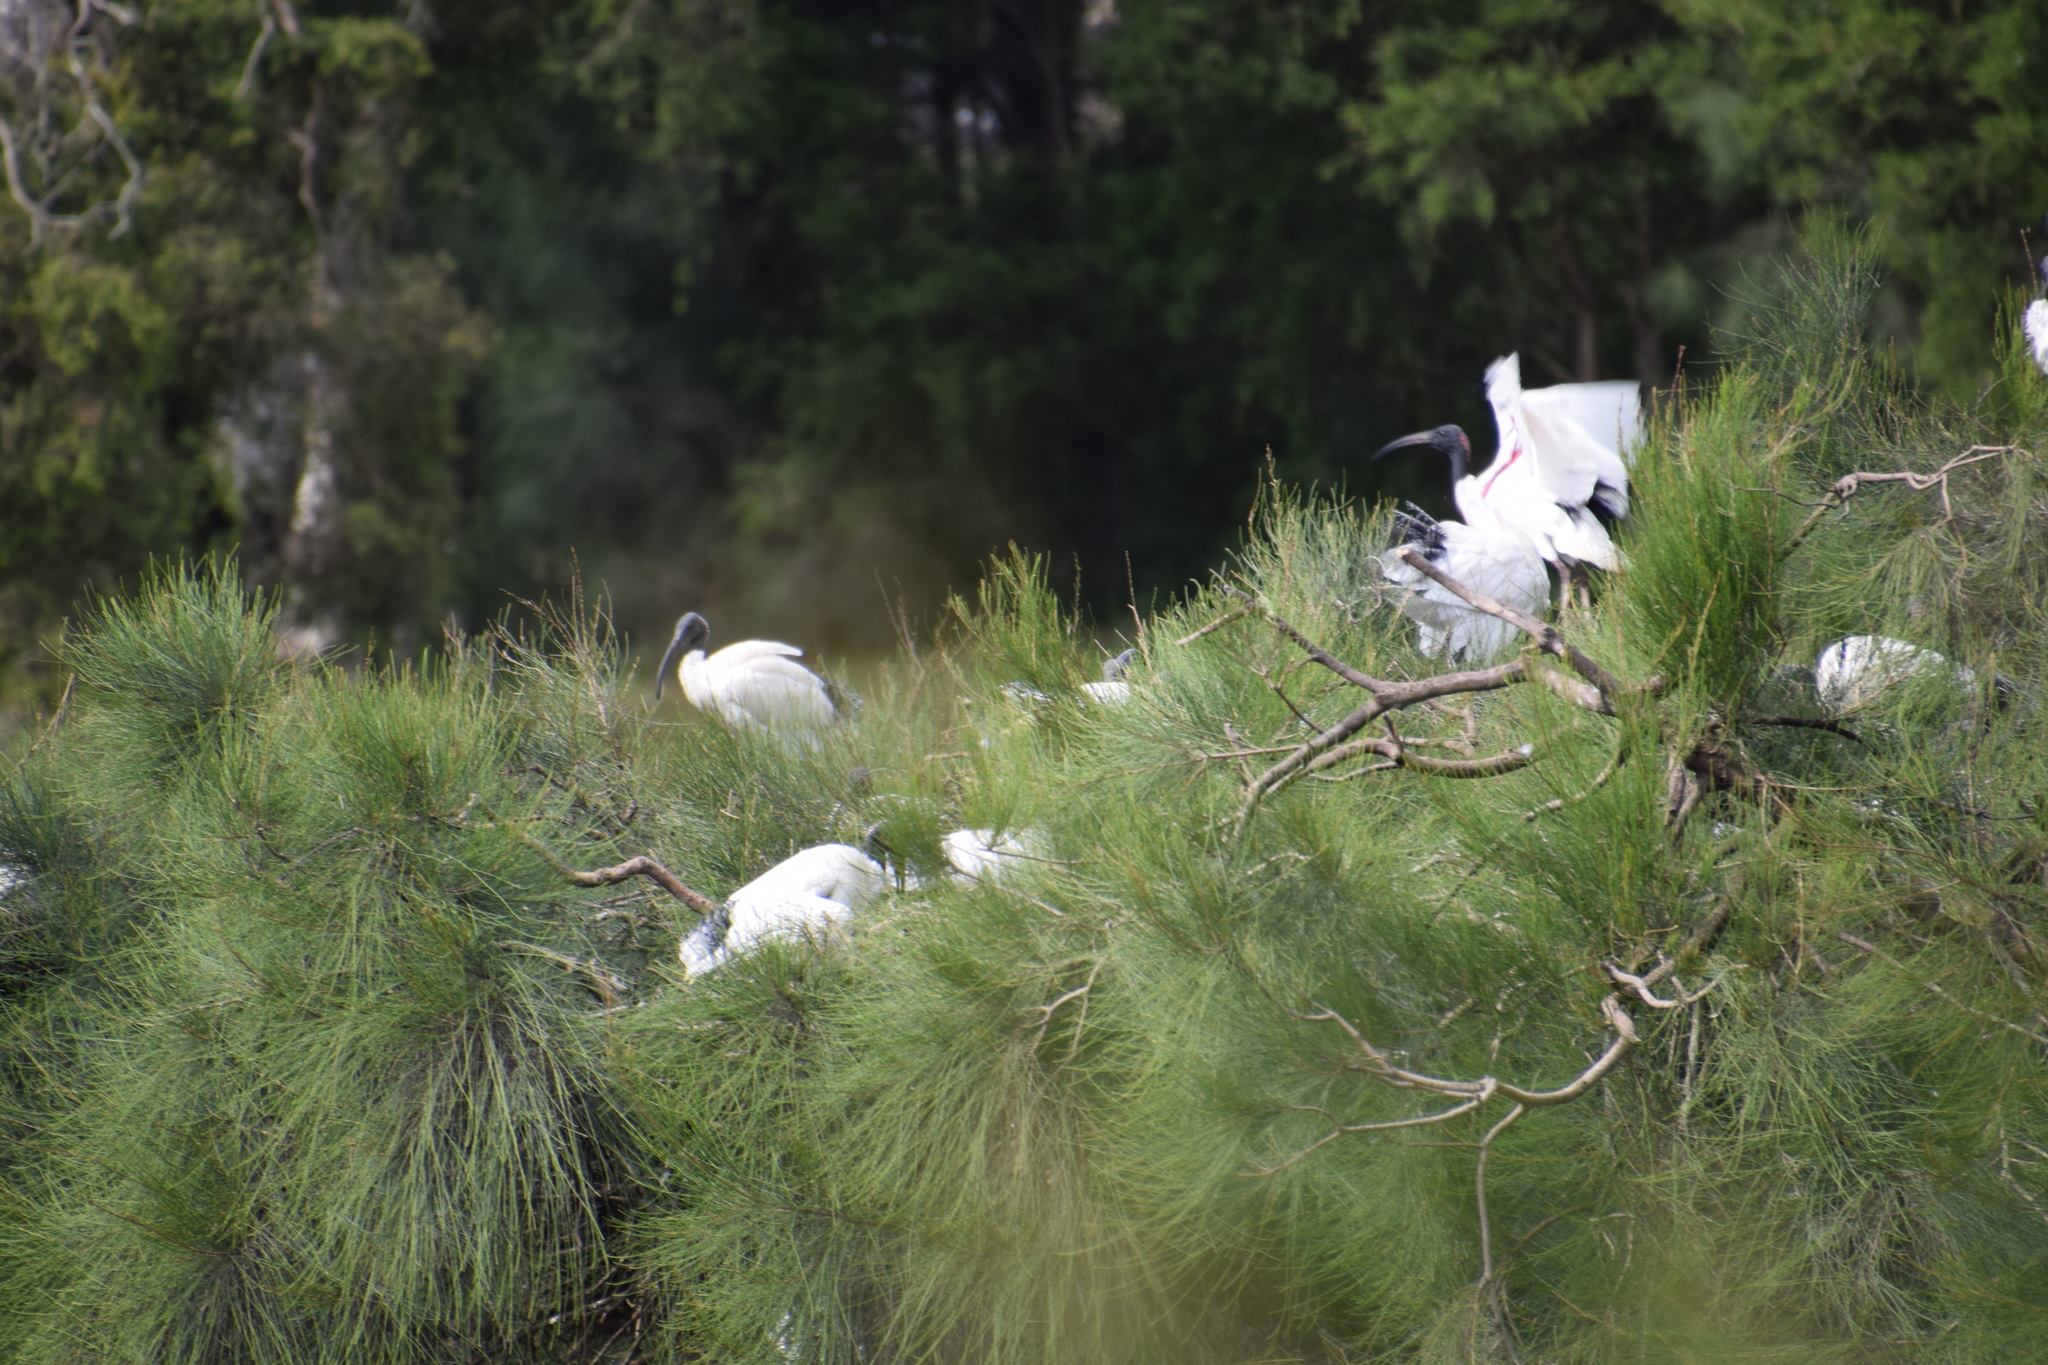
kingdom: Animalia
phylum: Chordata
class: Aves
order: Pelecaniformes
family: Threskiornithidae
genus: Threskiornis
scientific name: Threskiornis molucca
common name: Australian white ibis
